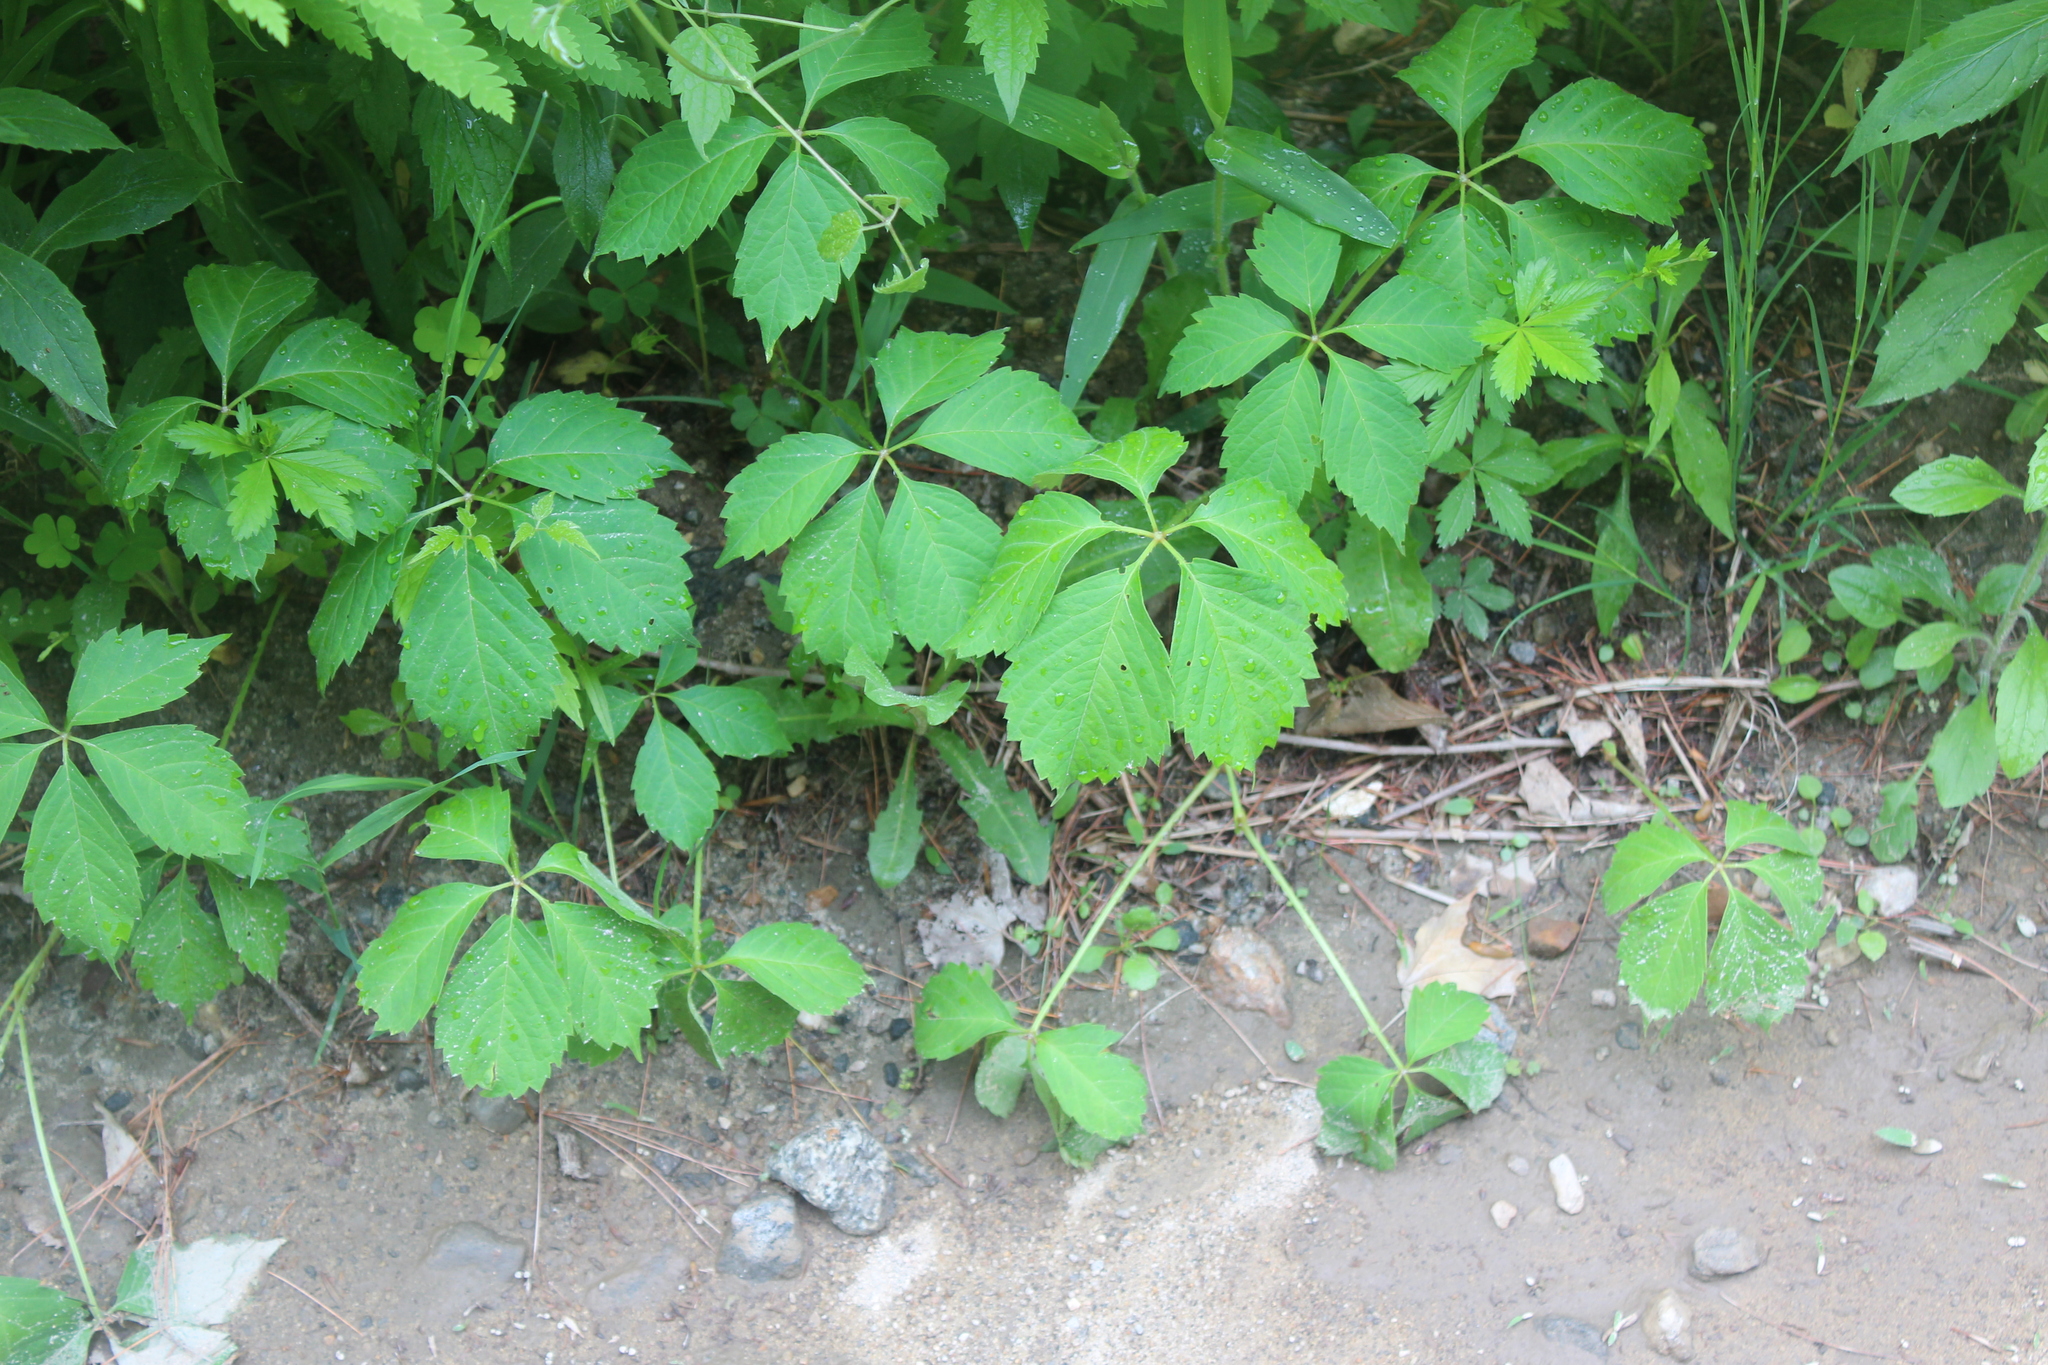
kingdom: Plantae
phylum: Tracheophyta
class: Magnoliopsida
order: Vitales
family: Vitaceae
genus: Parthenocissus
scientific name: Parthenocissus quinquefolia
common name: Virginia-creeper
